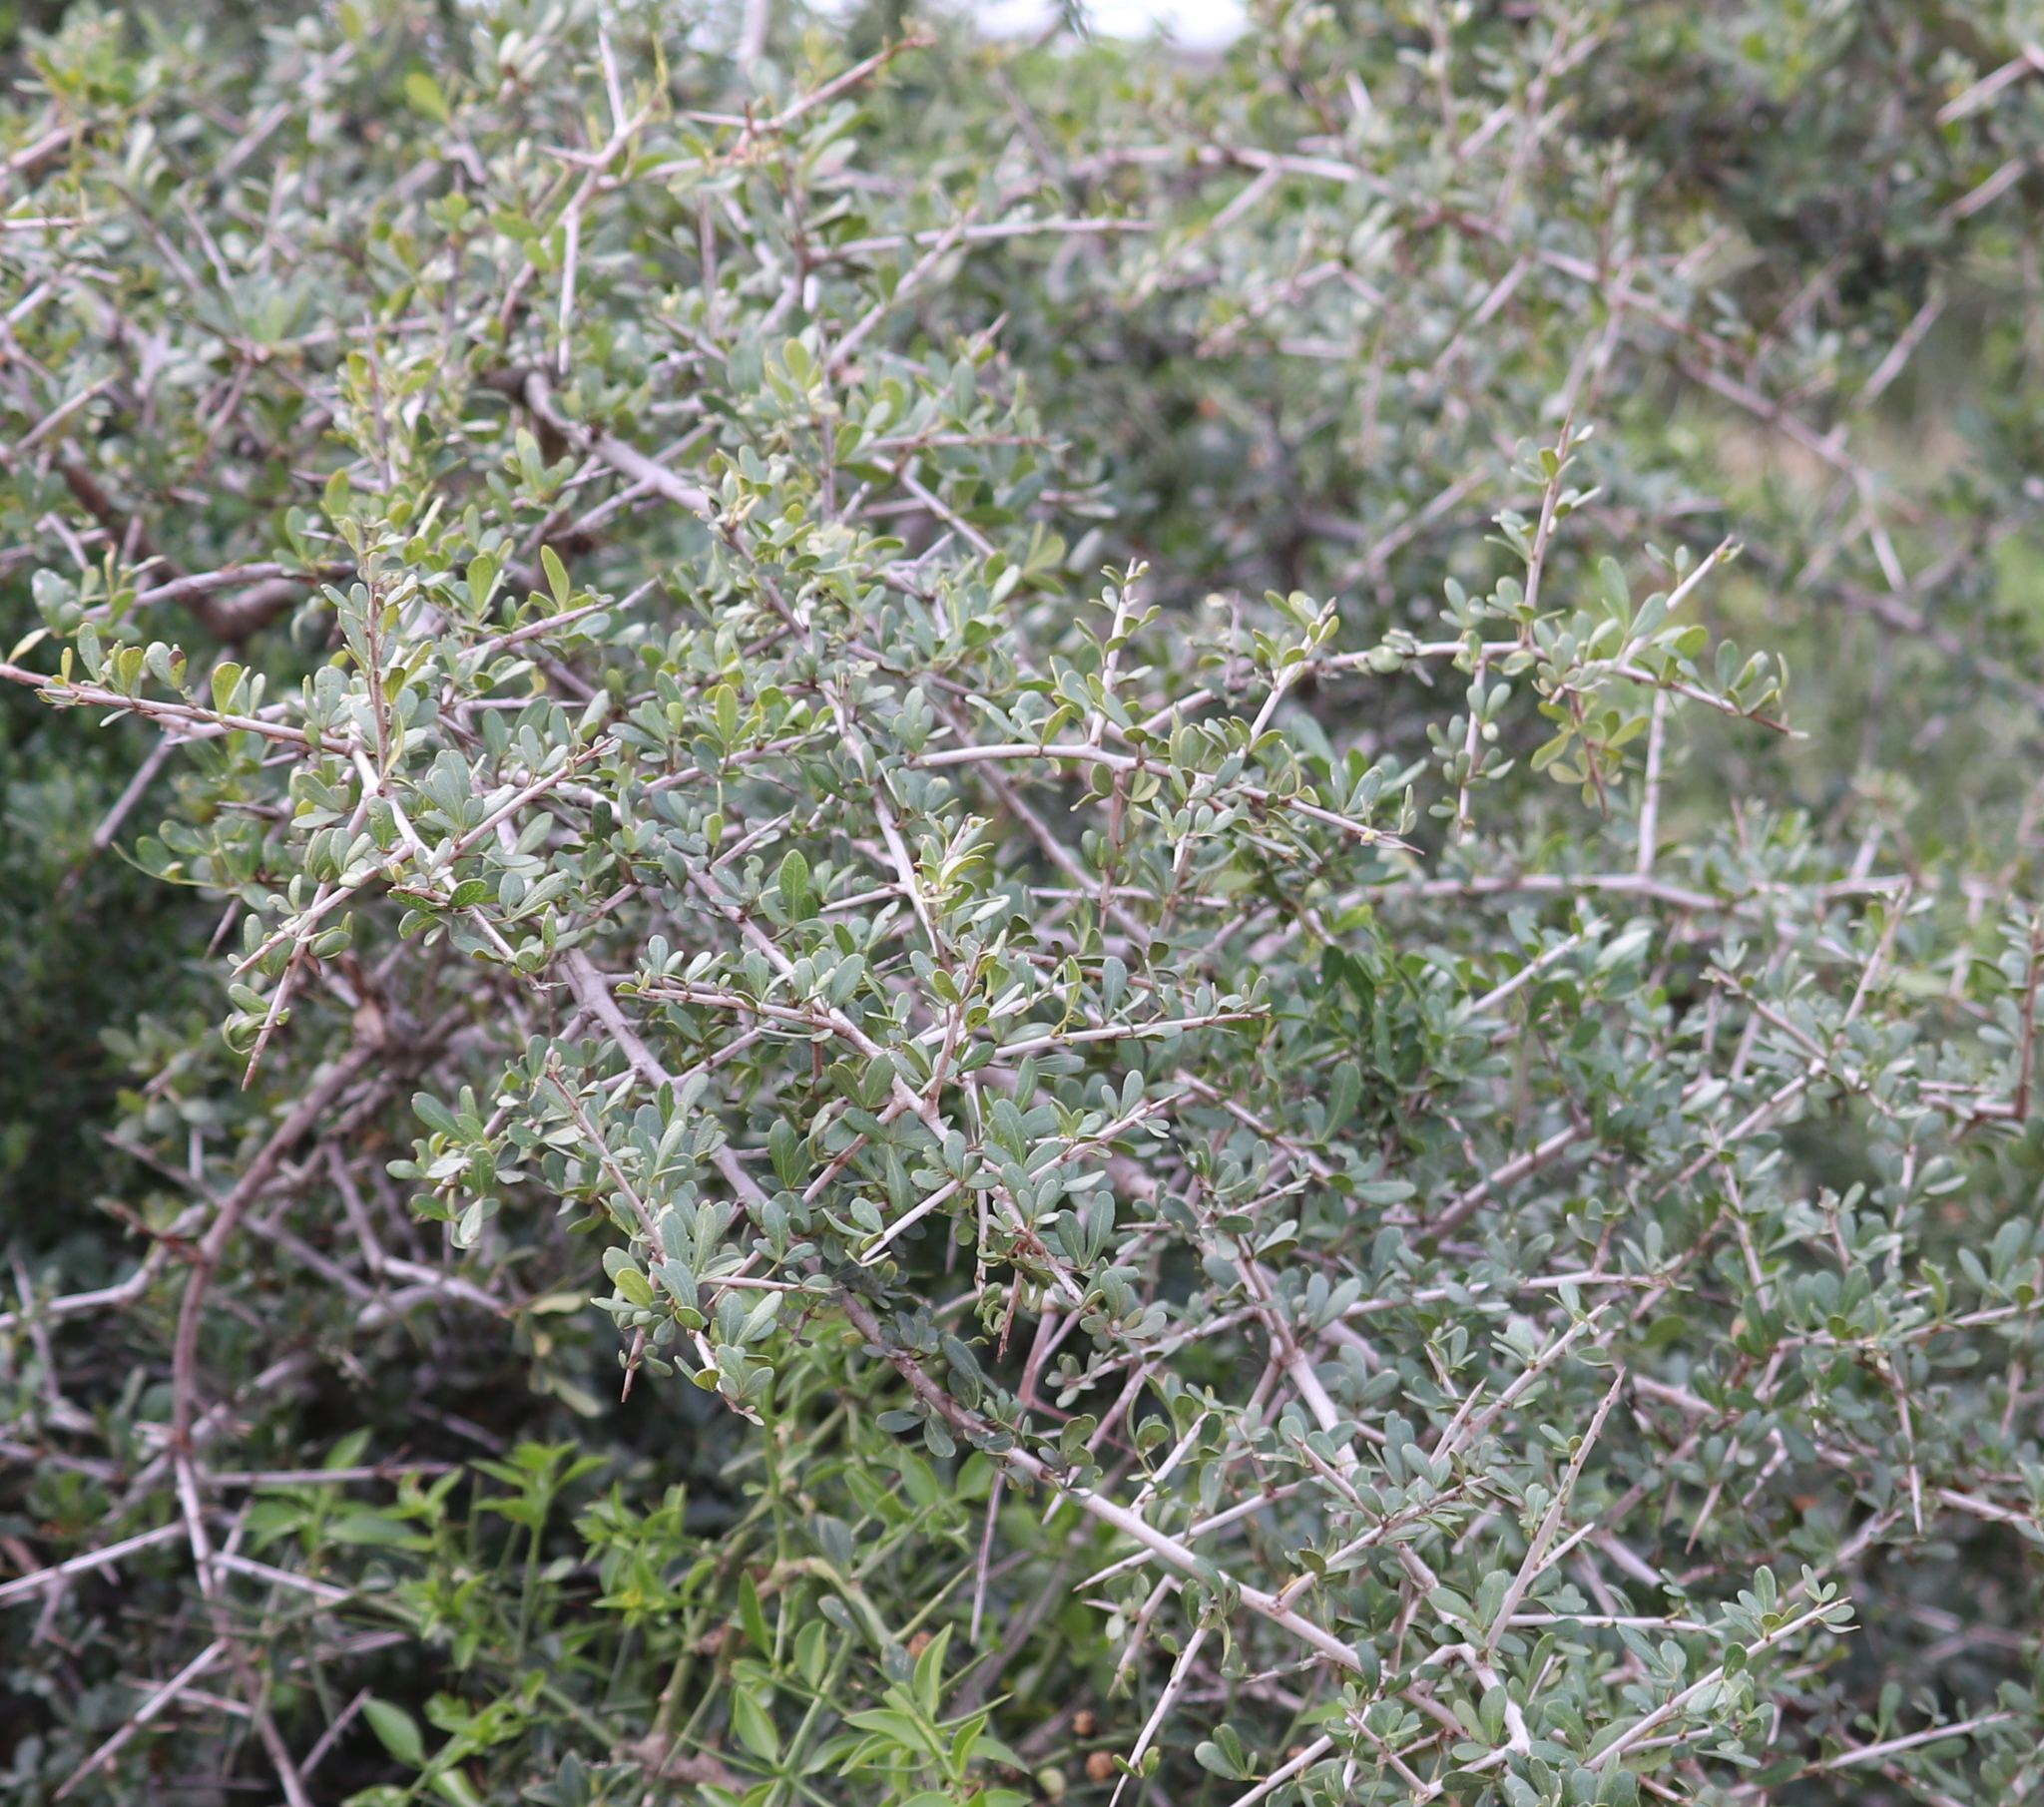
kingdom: Plantae
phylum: Tracheophyta
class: Magnoliopsida
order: Sapindales
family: Anacardiaceae
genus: Searsia
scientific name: Searsia pterota
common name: Winged currant
